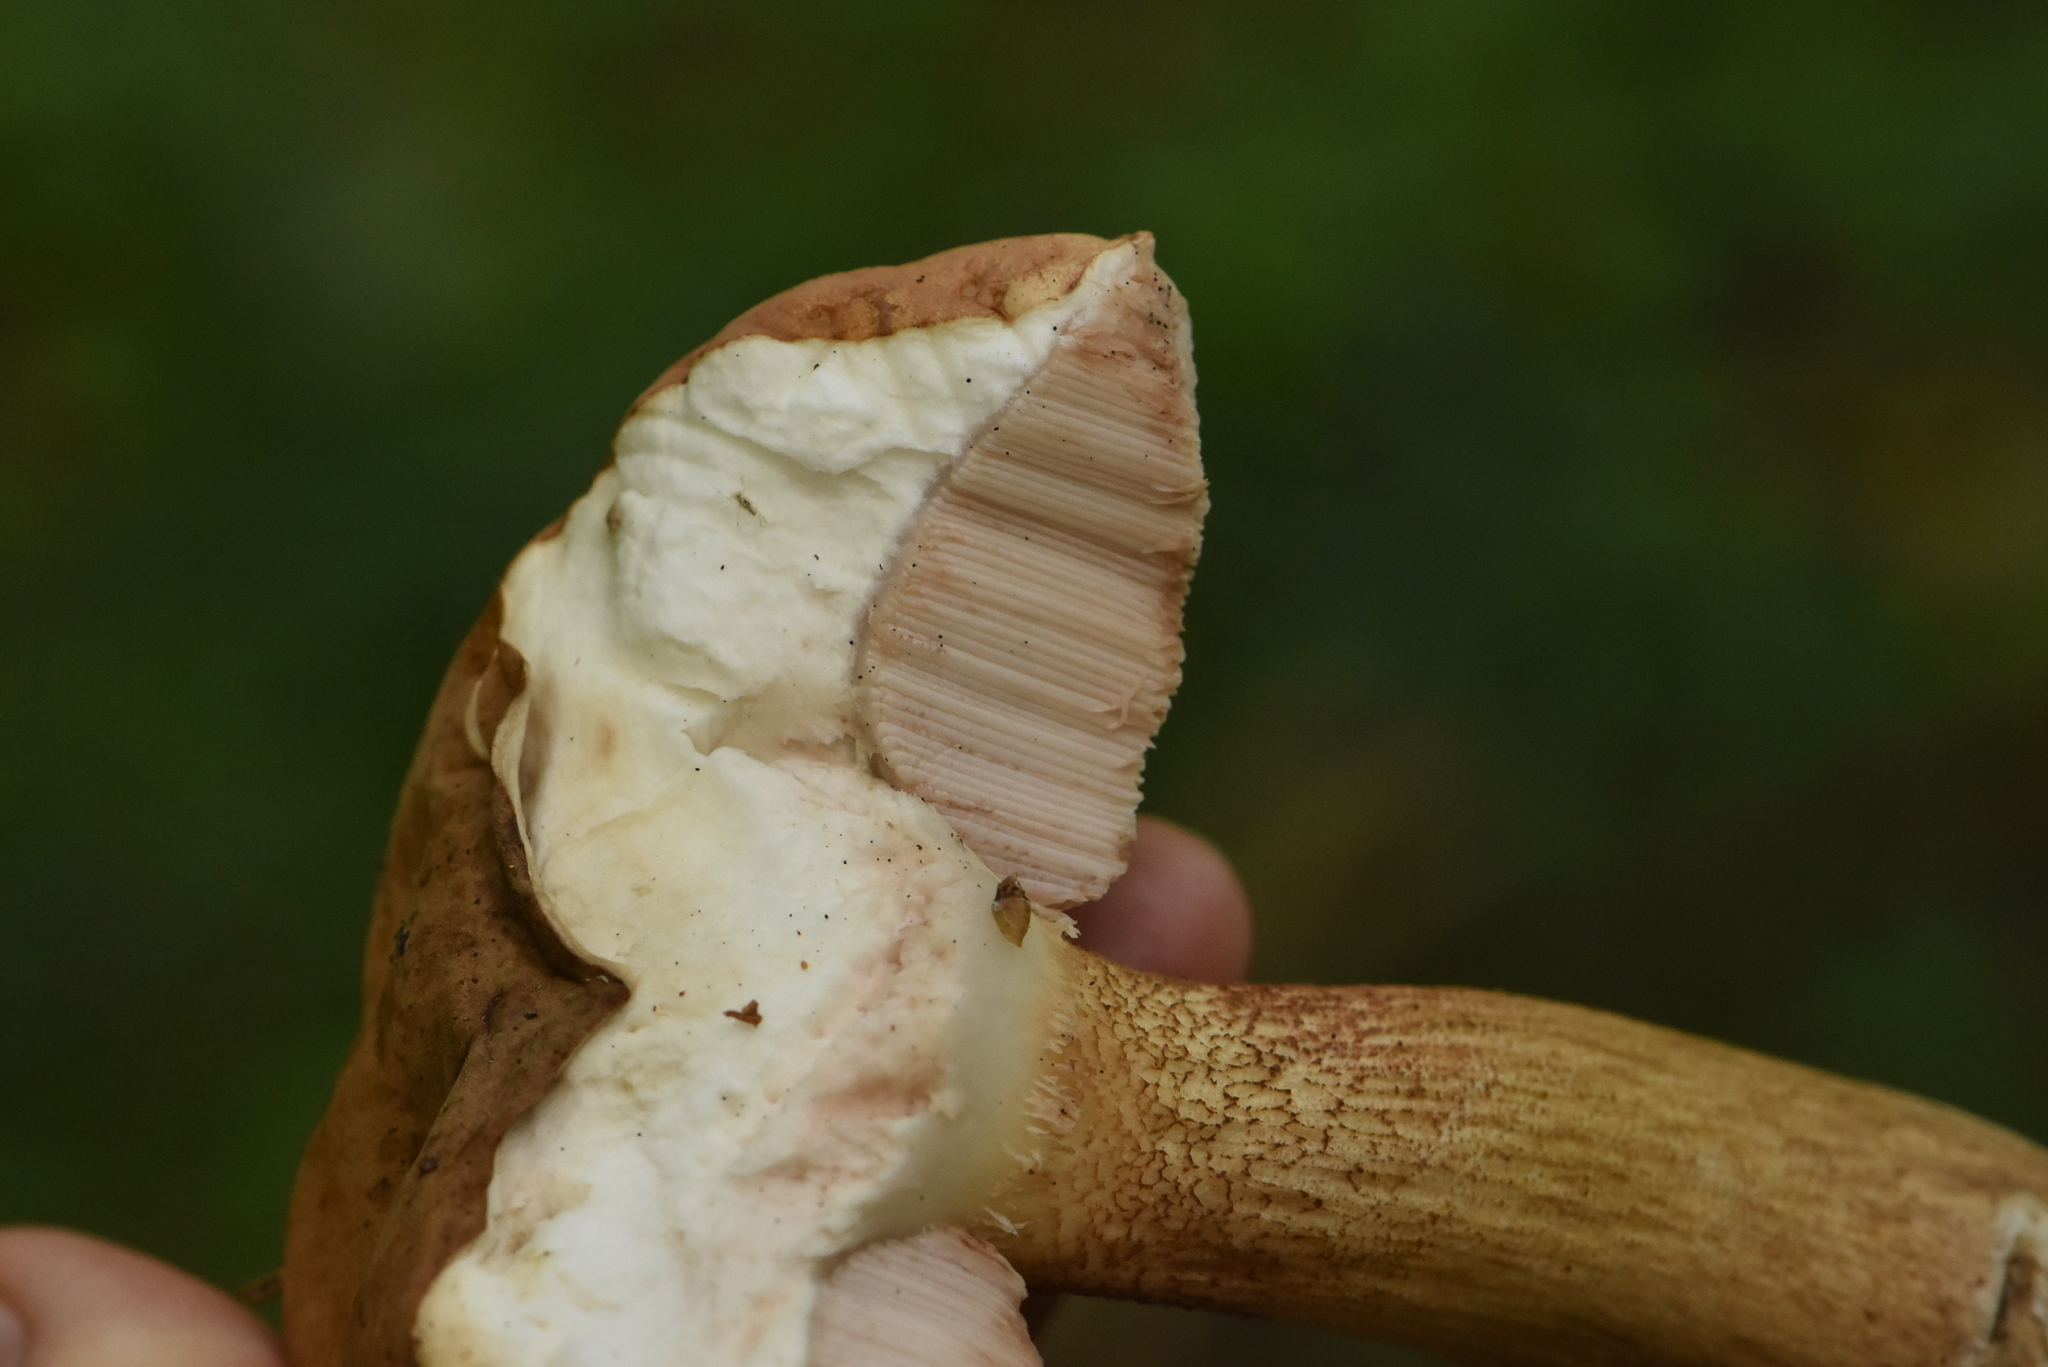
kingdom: Fungi
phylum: Basidiomycota
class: Agaricomycetes
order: Boletales
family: Boletaceae
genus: Tylopilus
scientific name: Tylopilus felleus
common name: Bitter bolete
